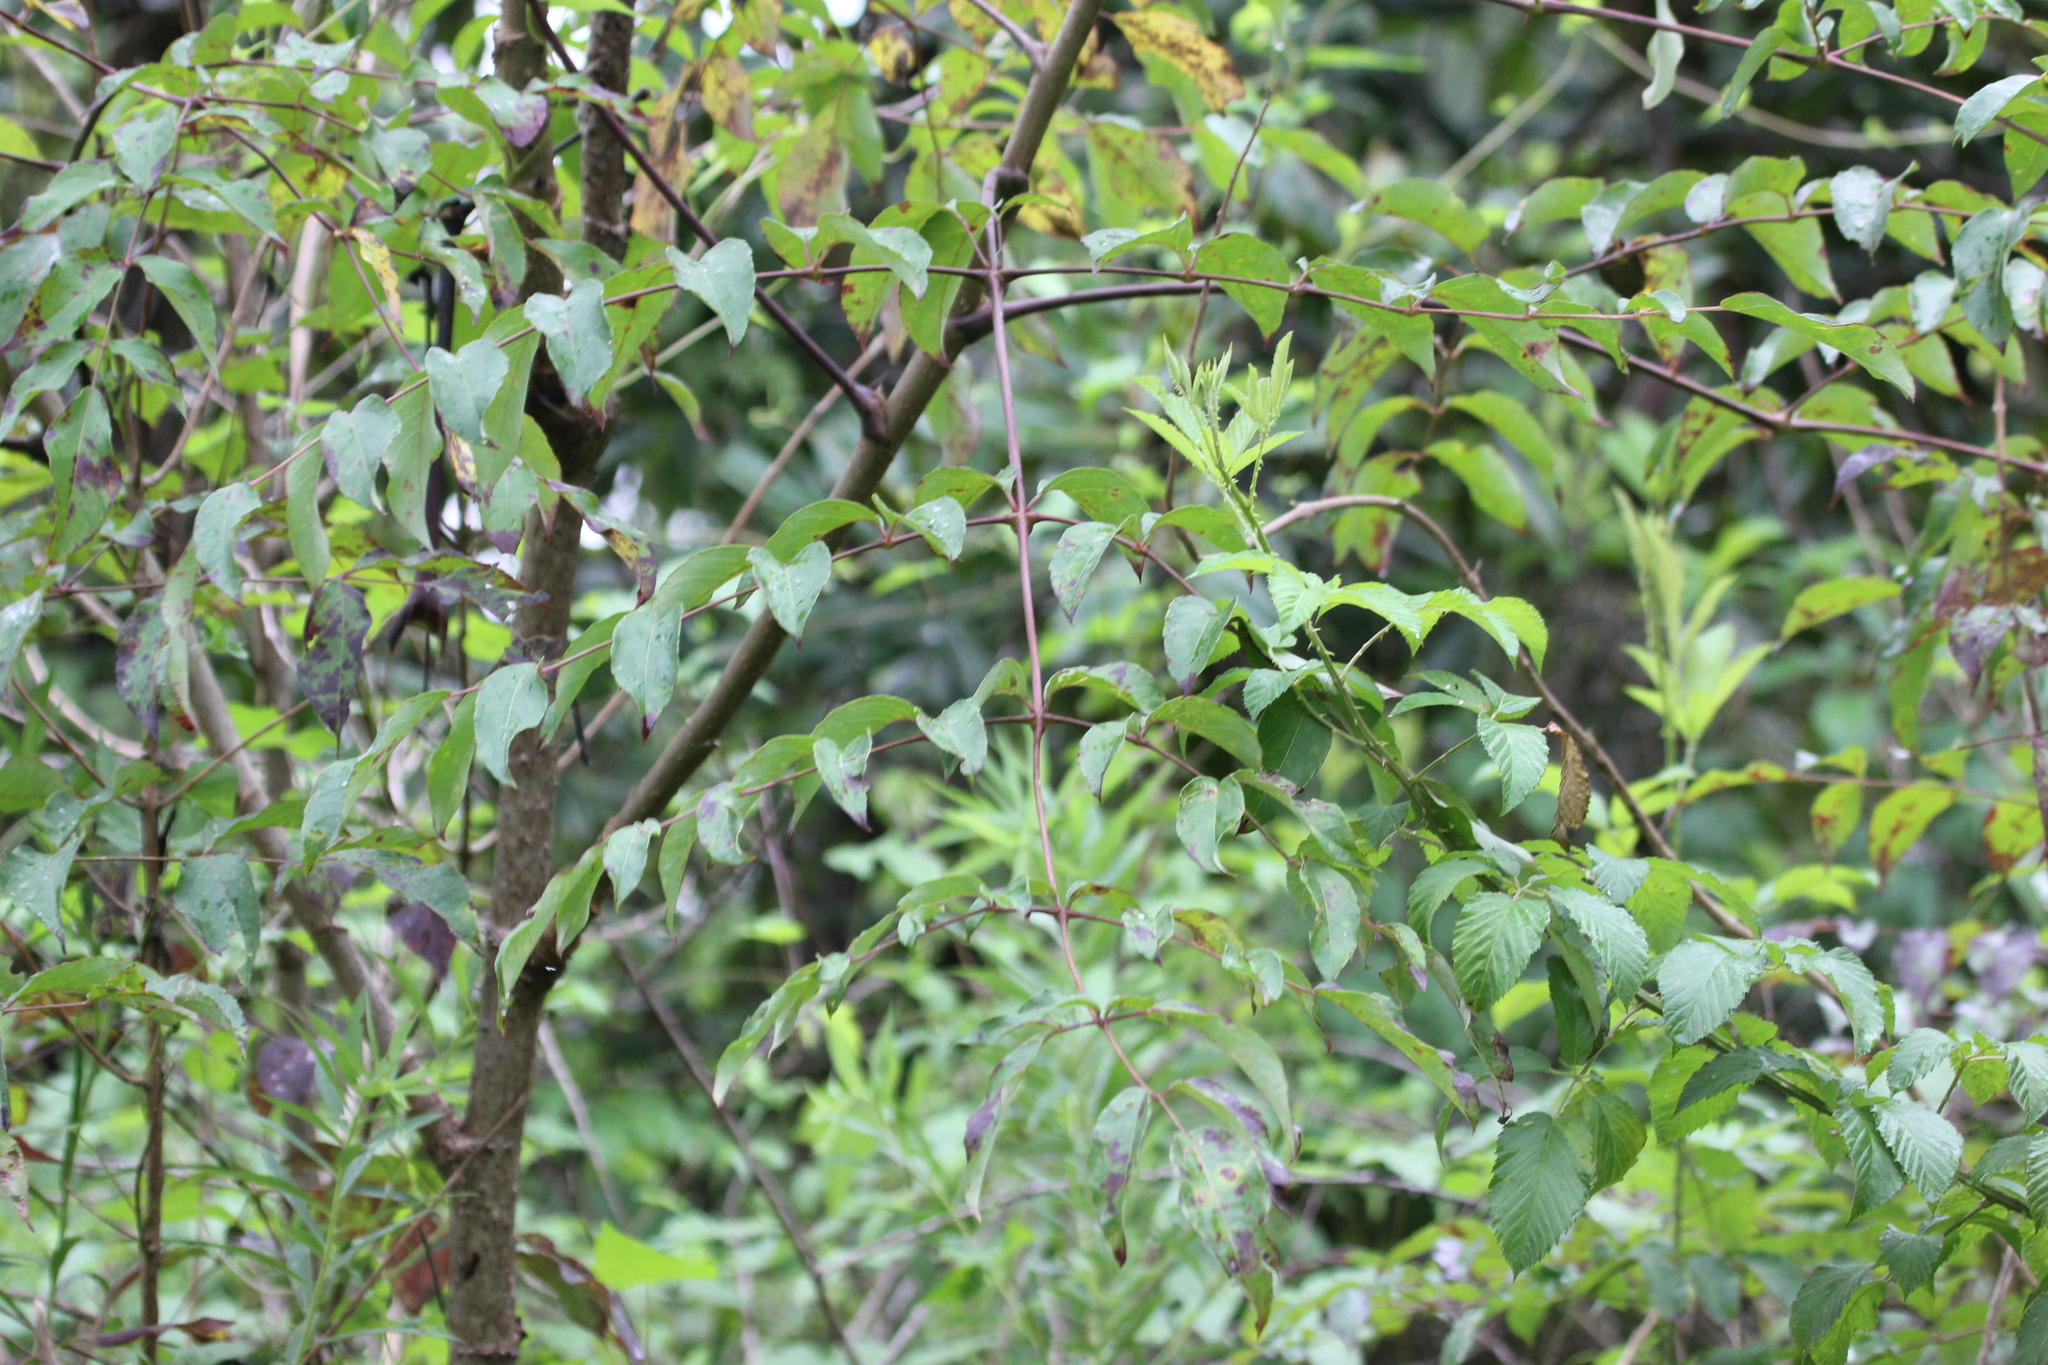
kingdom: Plantae
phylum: Tracheophyta
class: Magnoliopsida
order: Apiales
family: Araliaceae
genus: Aralia
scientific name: Aralia spinosa
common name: Hercules'-club
